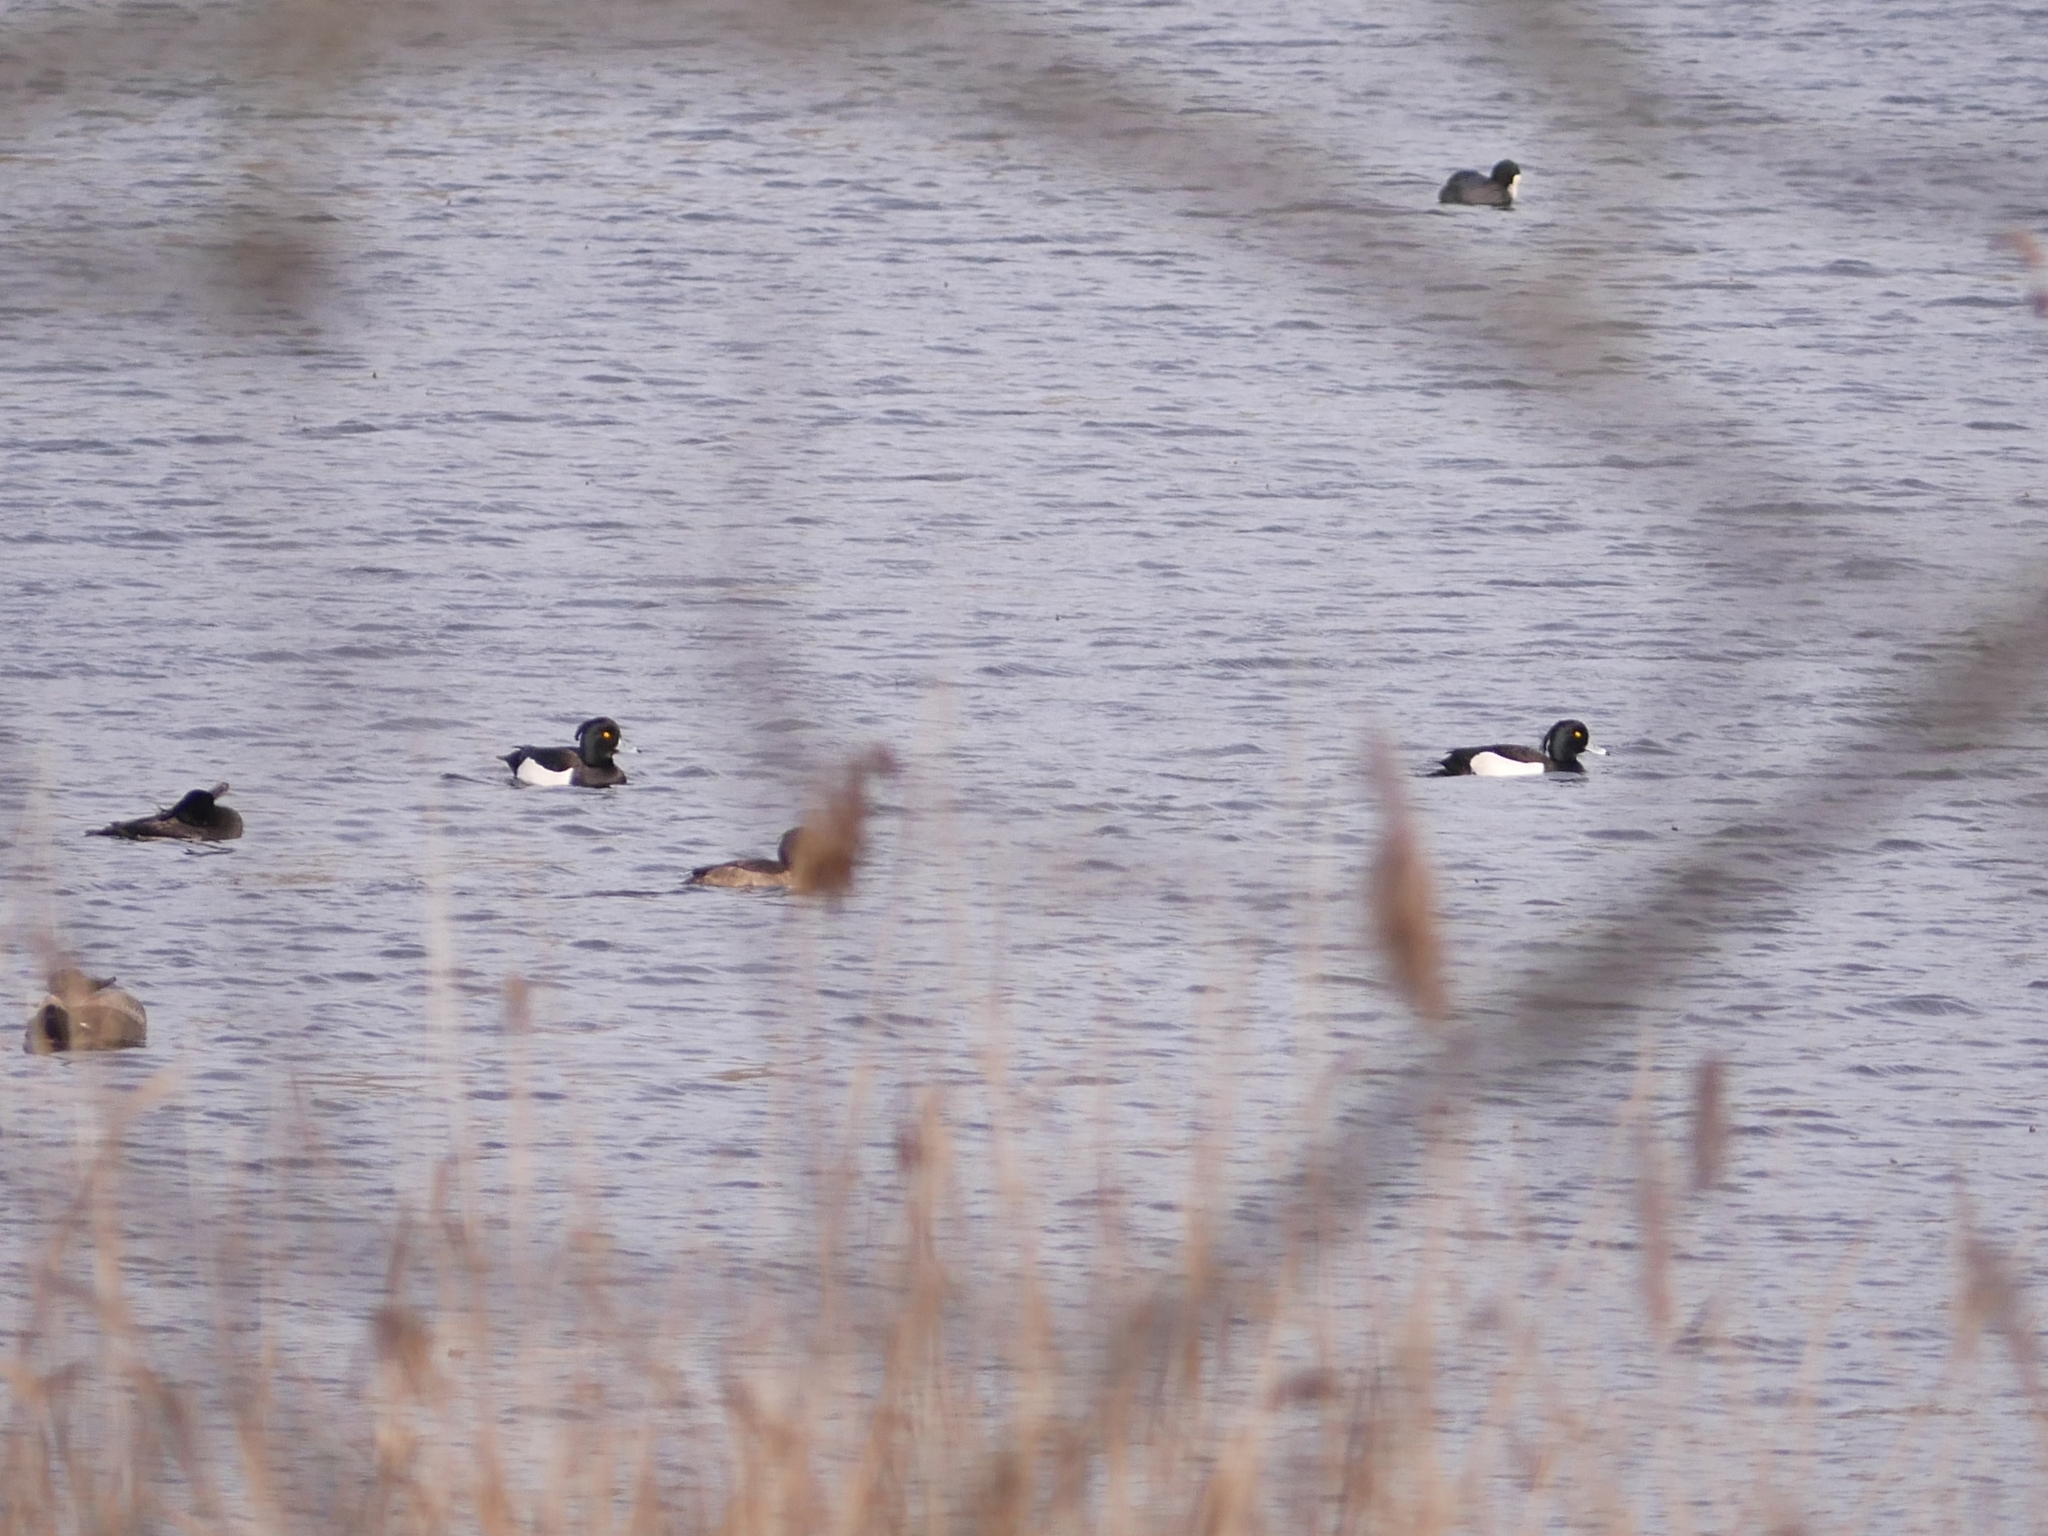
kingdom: Animalia
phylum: Chordata
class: Aves
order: Anseriformes
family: Anatidae
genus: Aythya
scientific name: Aythya fuligula
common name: Tufted duck
